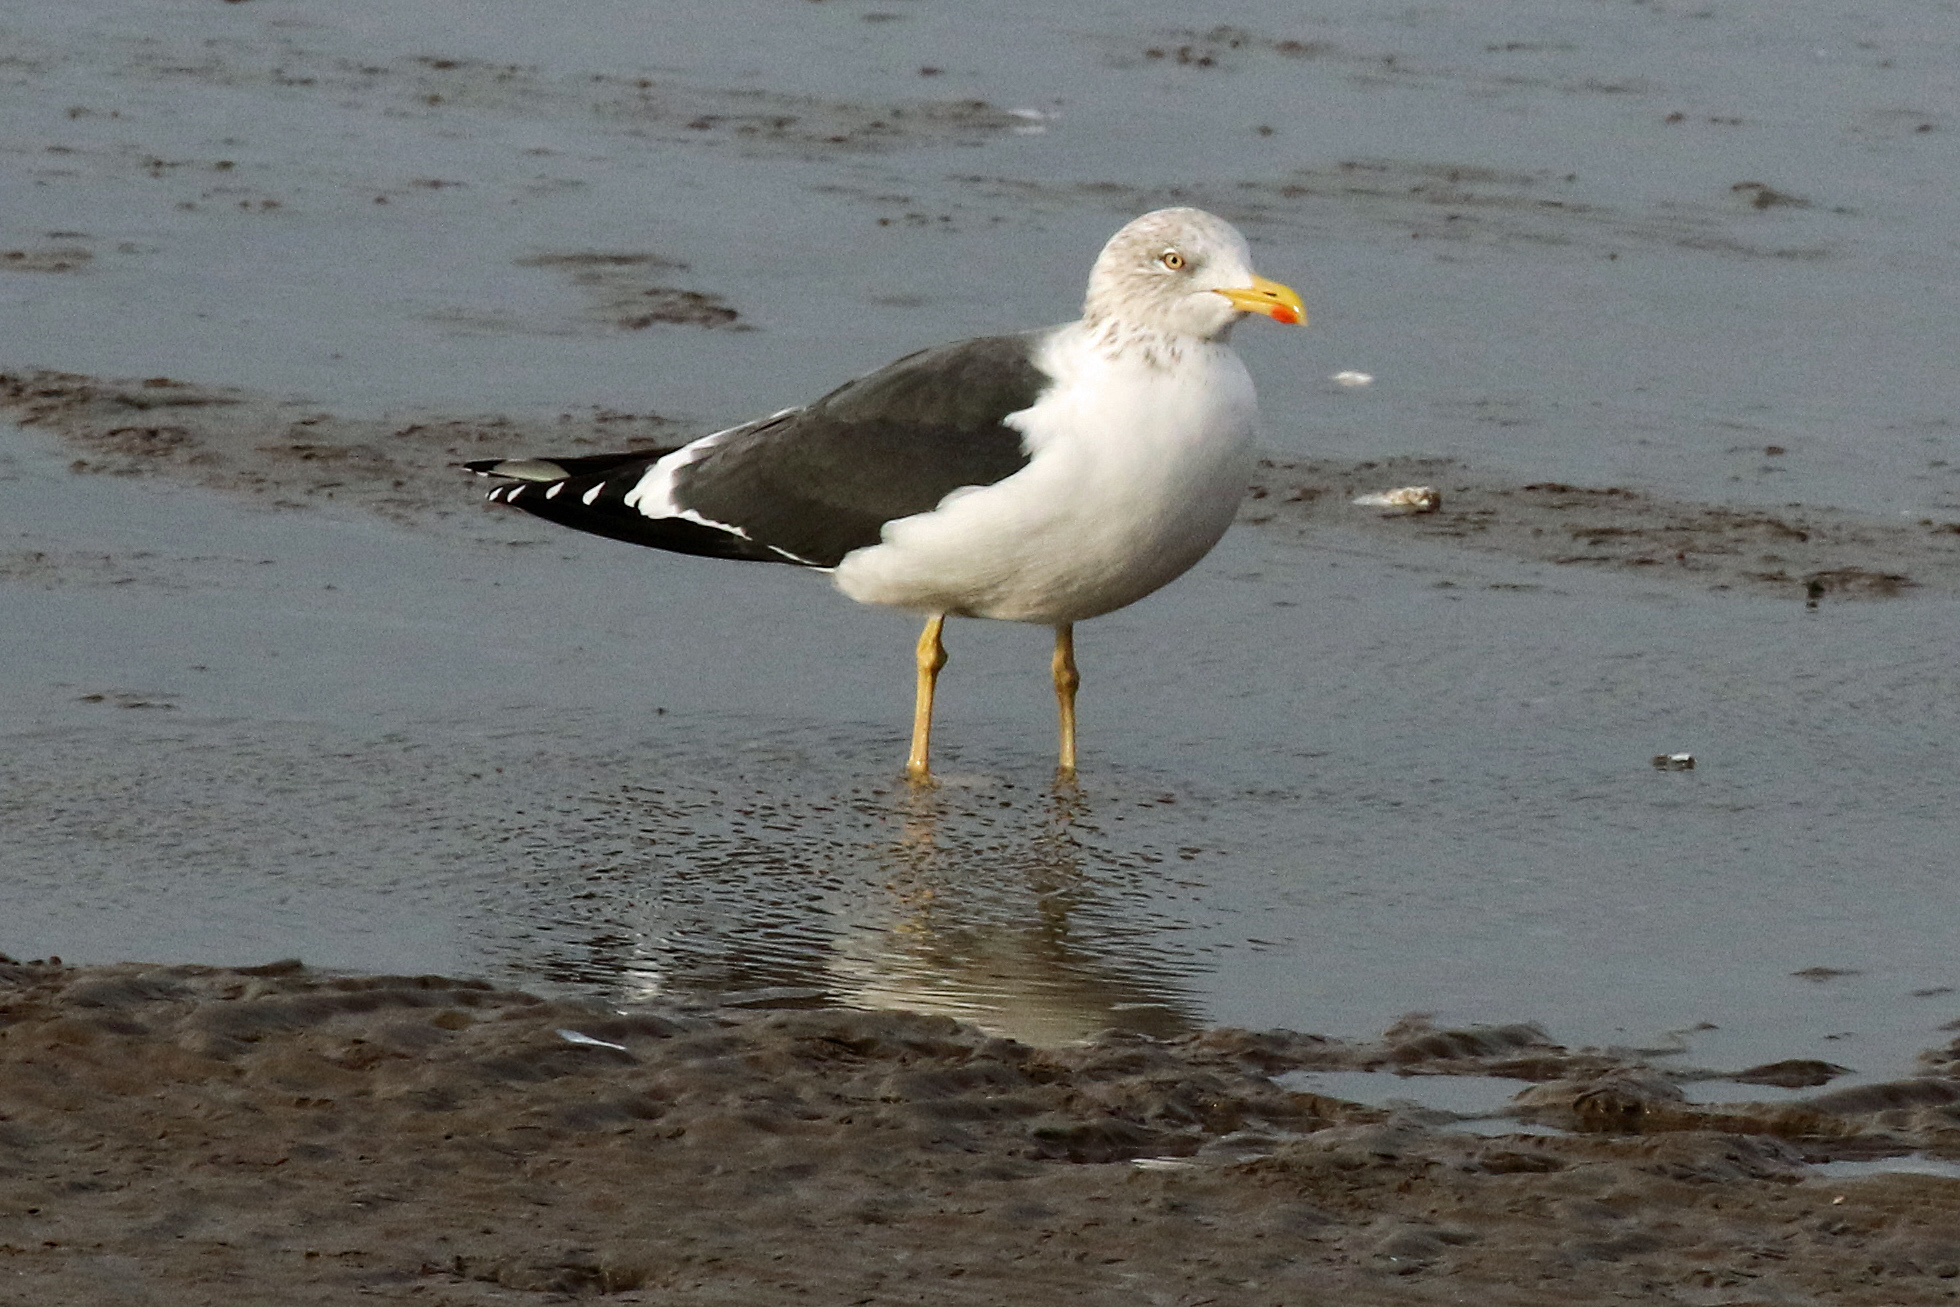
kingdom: Animalia
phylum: Chordata
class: Aves
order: Charadriiformes
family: Laridae
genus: Larus
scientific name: Larus fuscus
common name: Lesser black-backed gull
